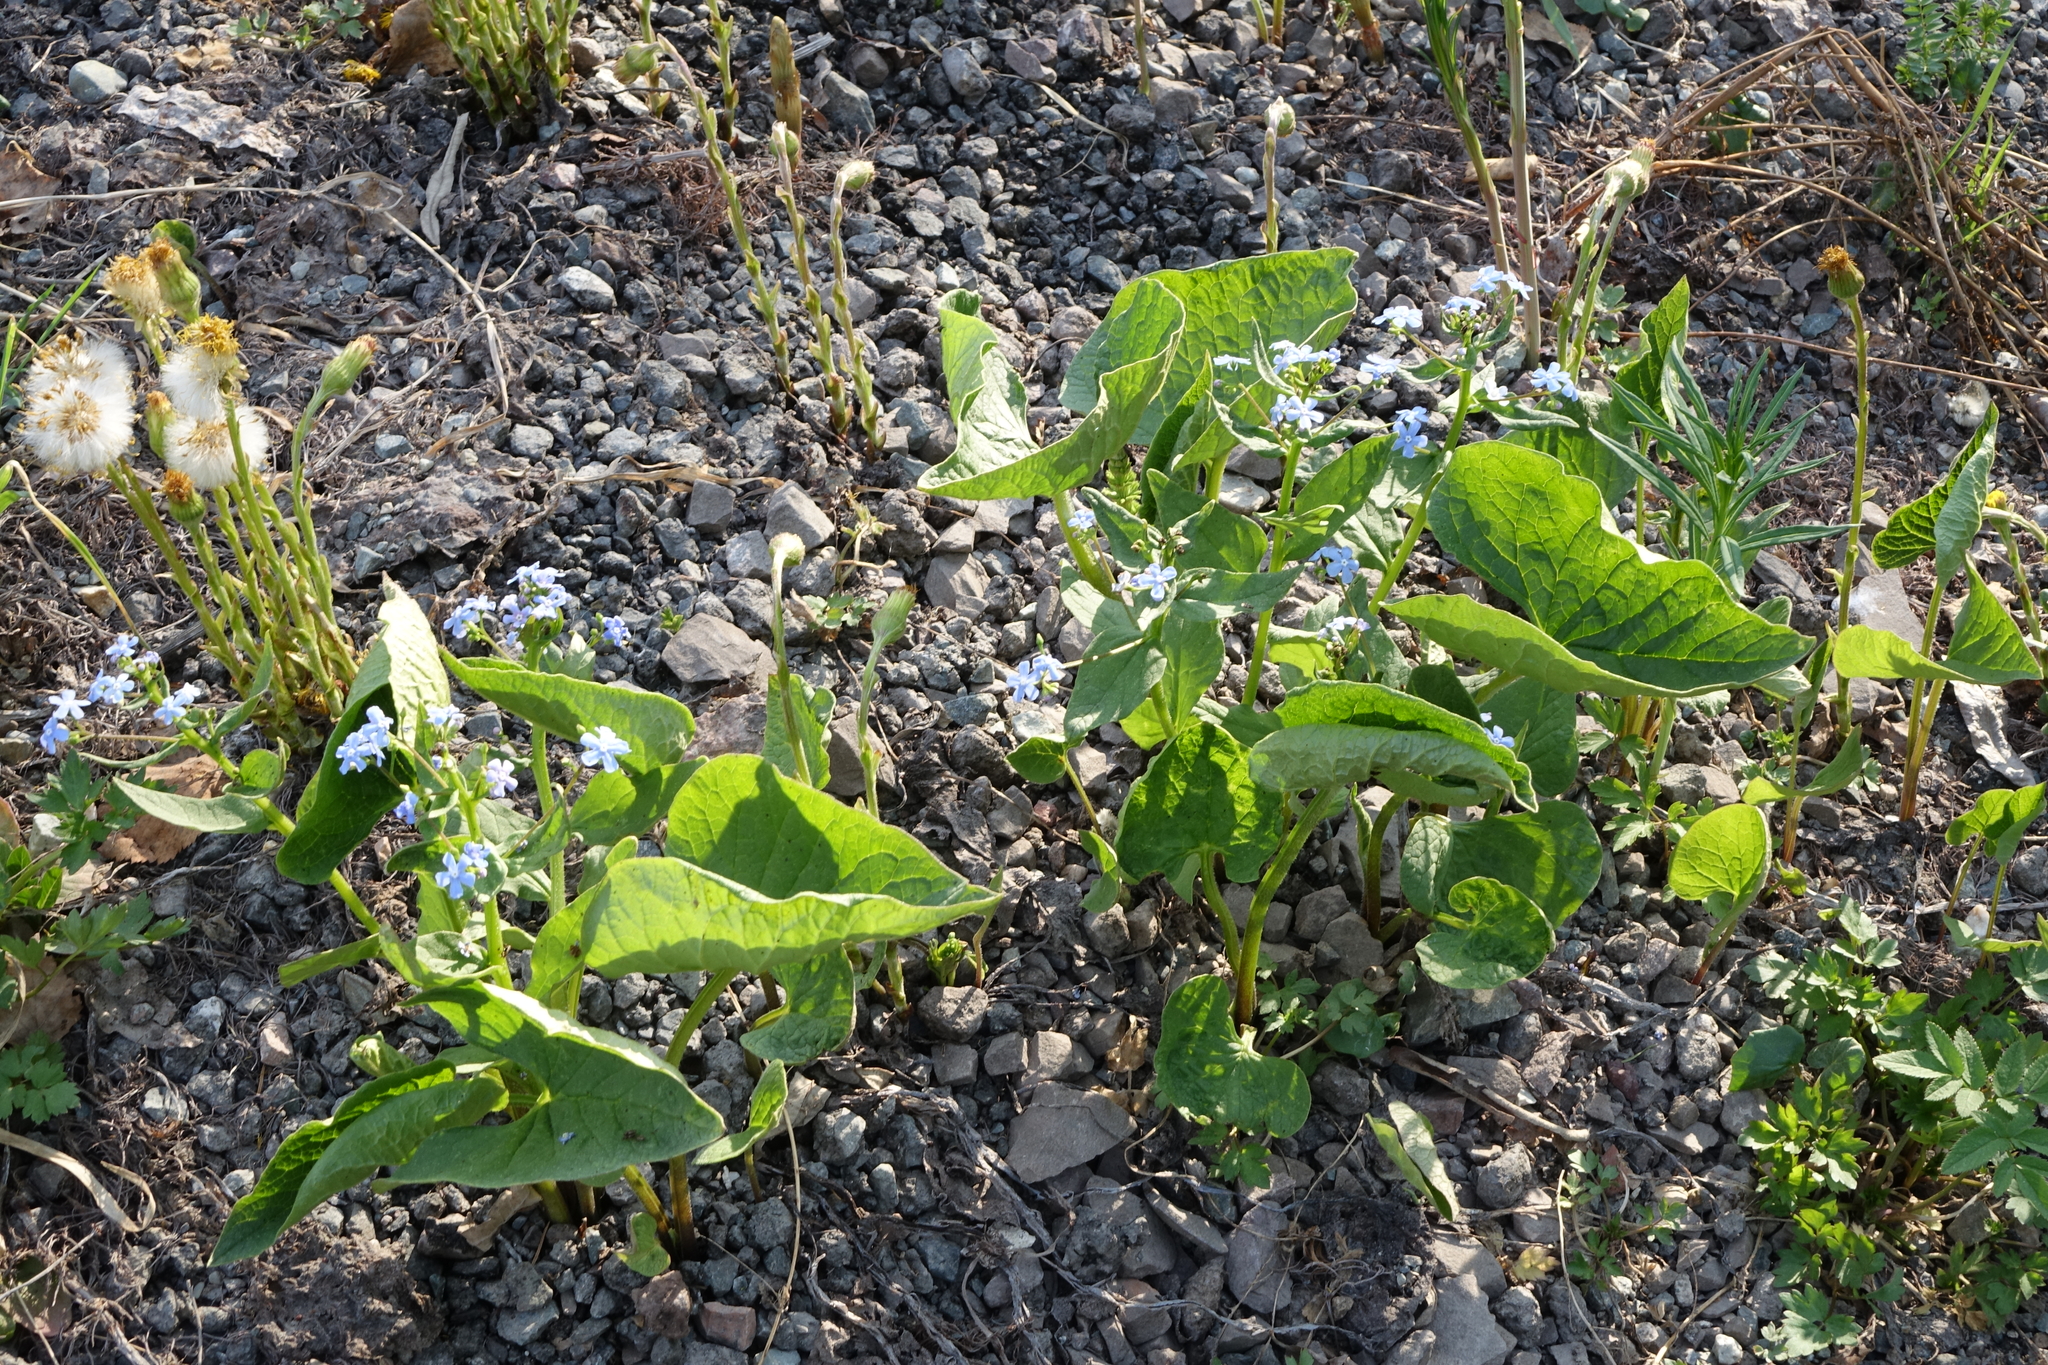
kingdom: Plantae
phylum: Tracheophyta
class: Magnoliopsida
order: Boraginales
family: Boraginaceae
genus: Brunnera
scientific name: Brunnera sibirica
